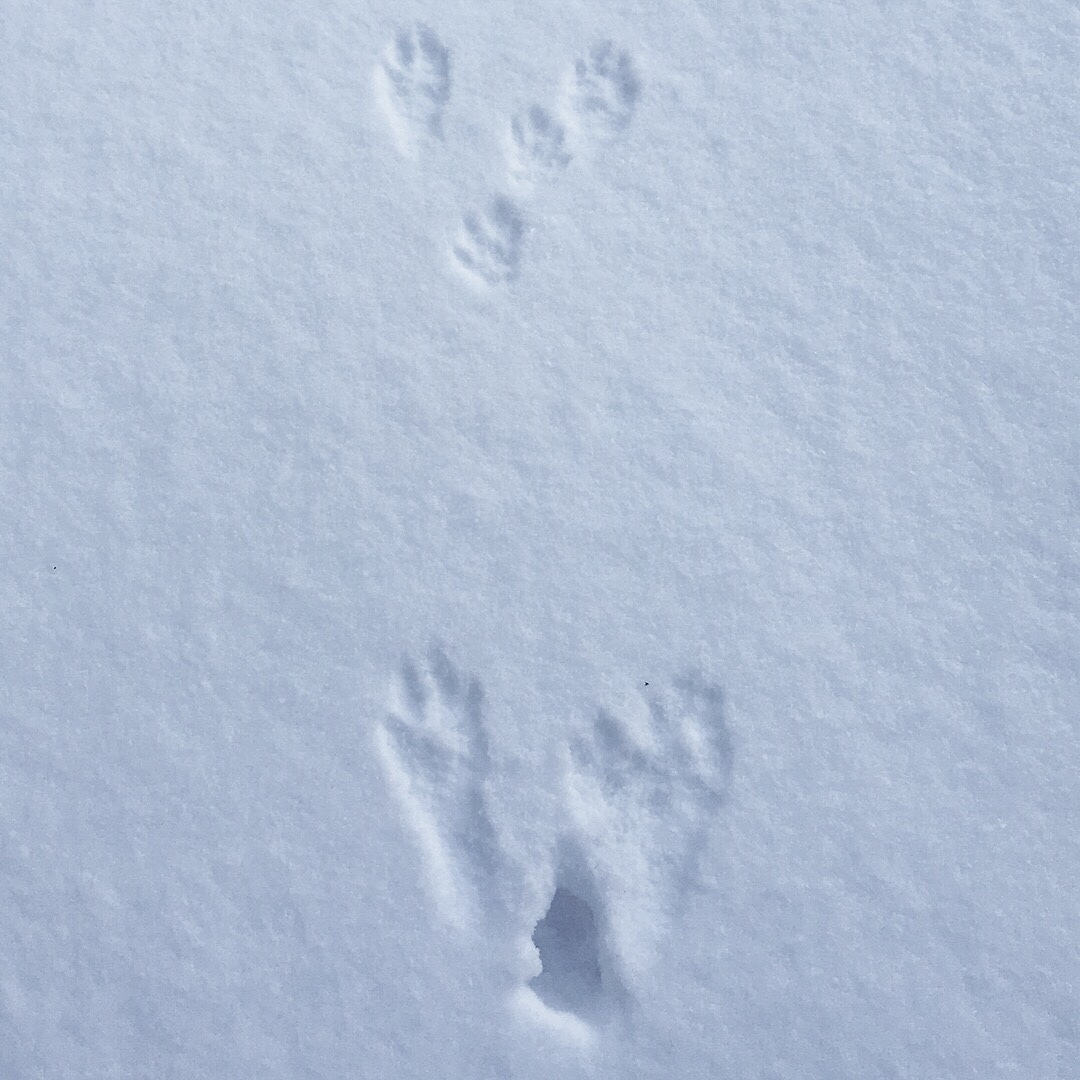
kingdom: Animalia
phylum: Chordata
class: Mammalia
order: Lagomorpha
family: Leporidae
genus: Sylvilagus
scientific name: Sylvilagus floridanus
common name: Eastern cottontail
